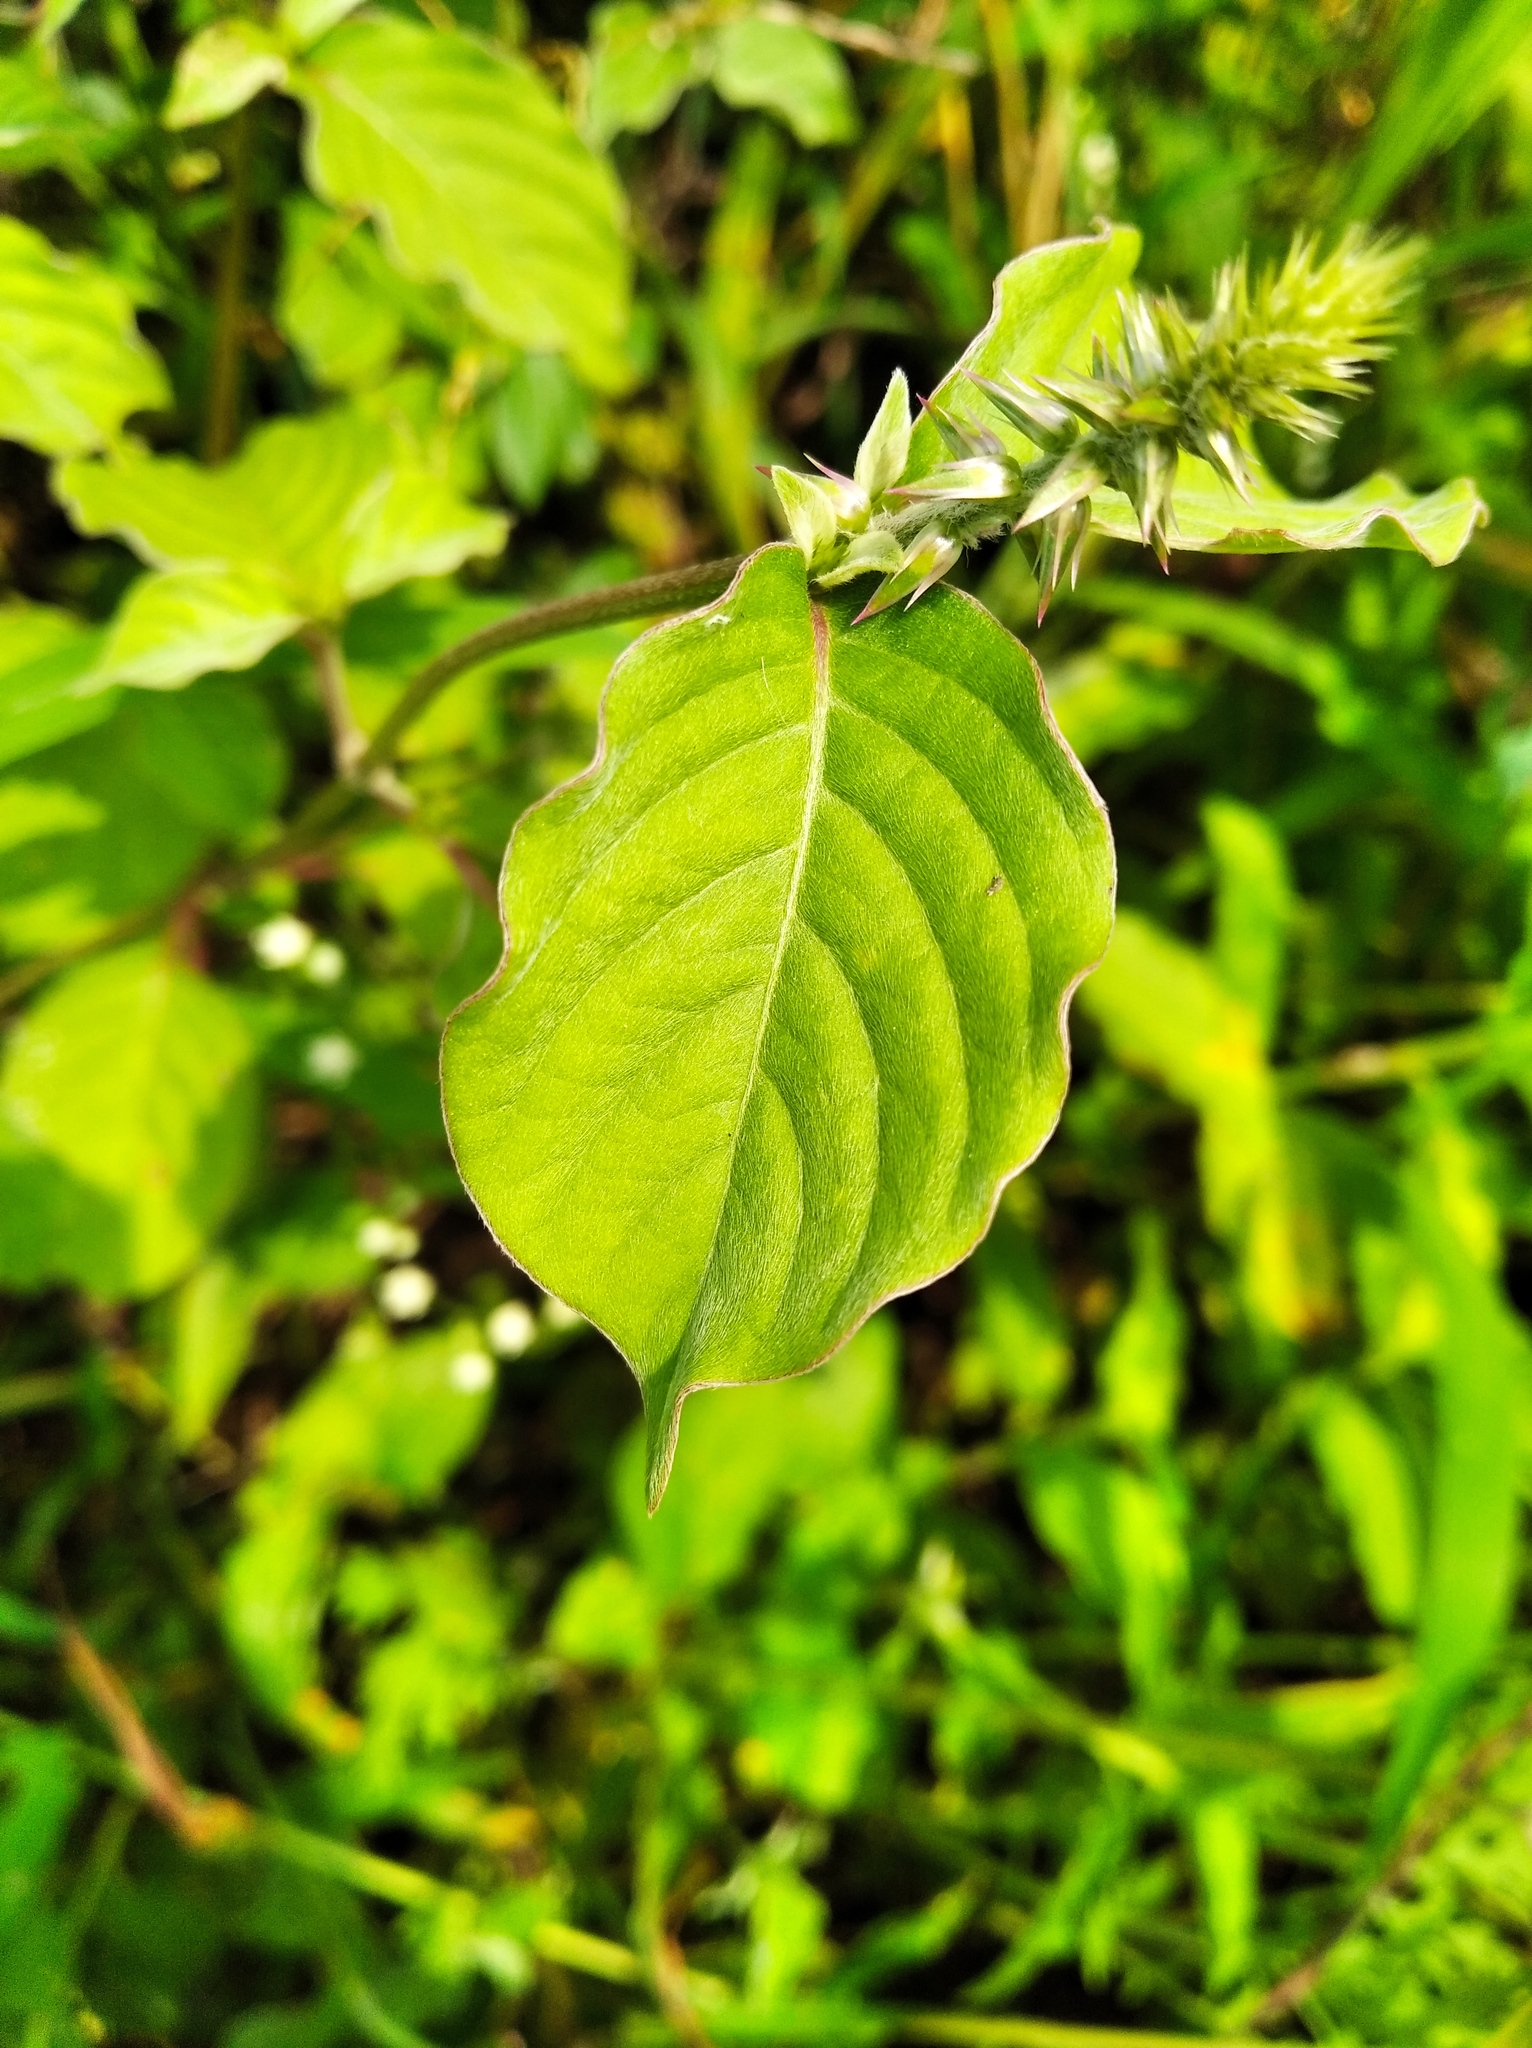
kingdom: Plantae
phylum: Tracheophyta
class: Magnoliopsida
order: Caryophyllales
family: Amaranthaceae
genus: Achyranthes
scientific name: Achyranthes aspera
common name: Devil's horsewhip
